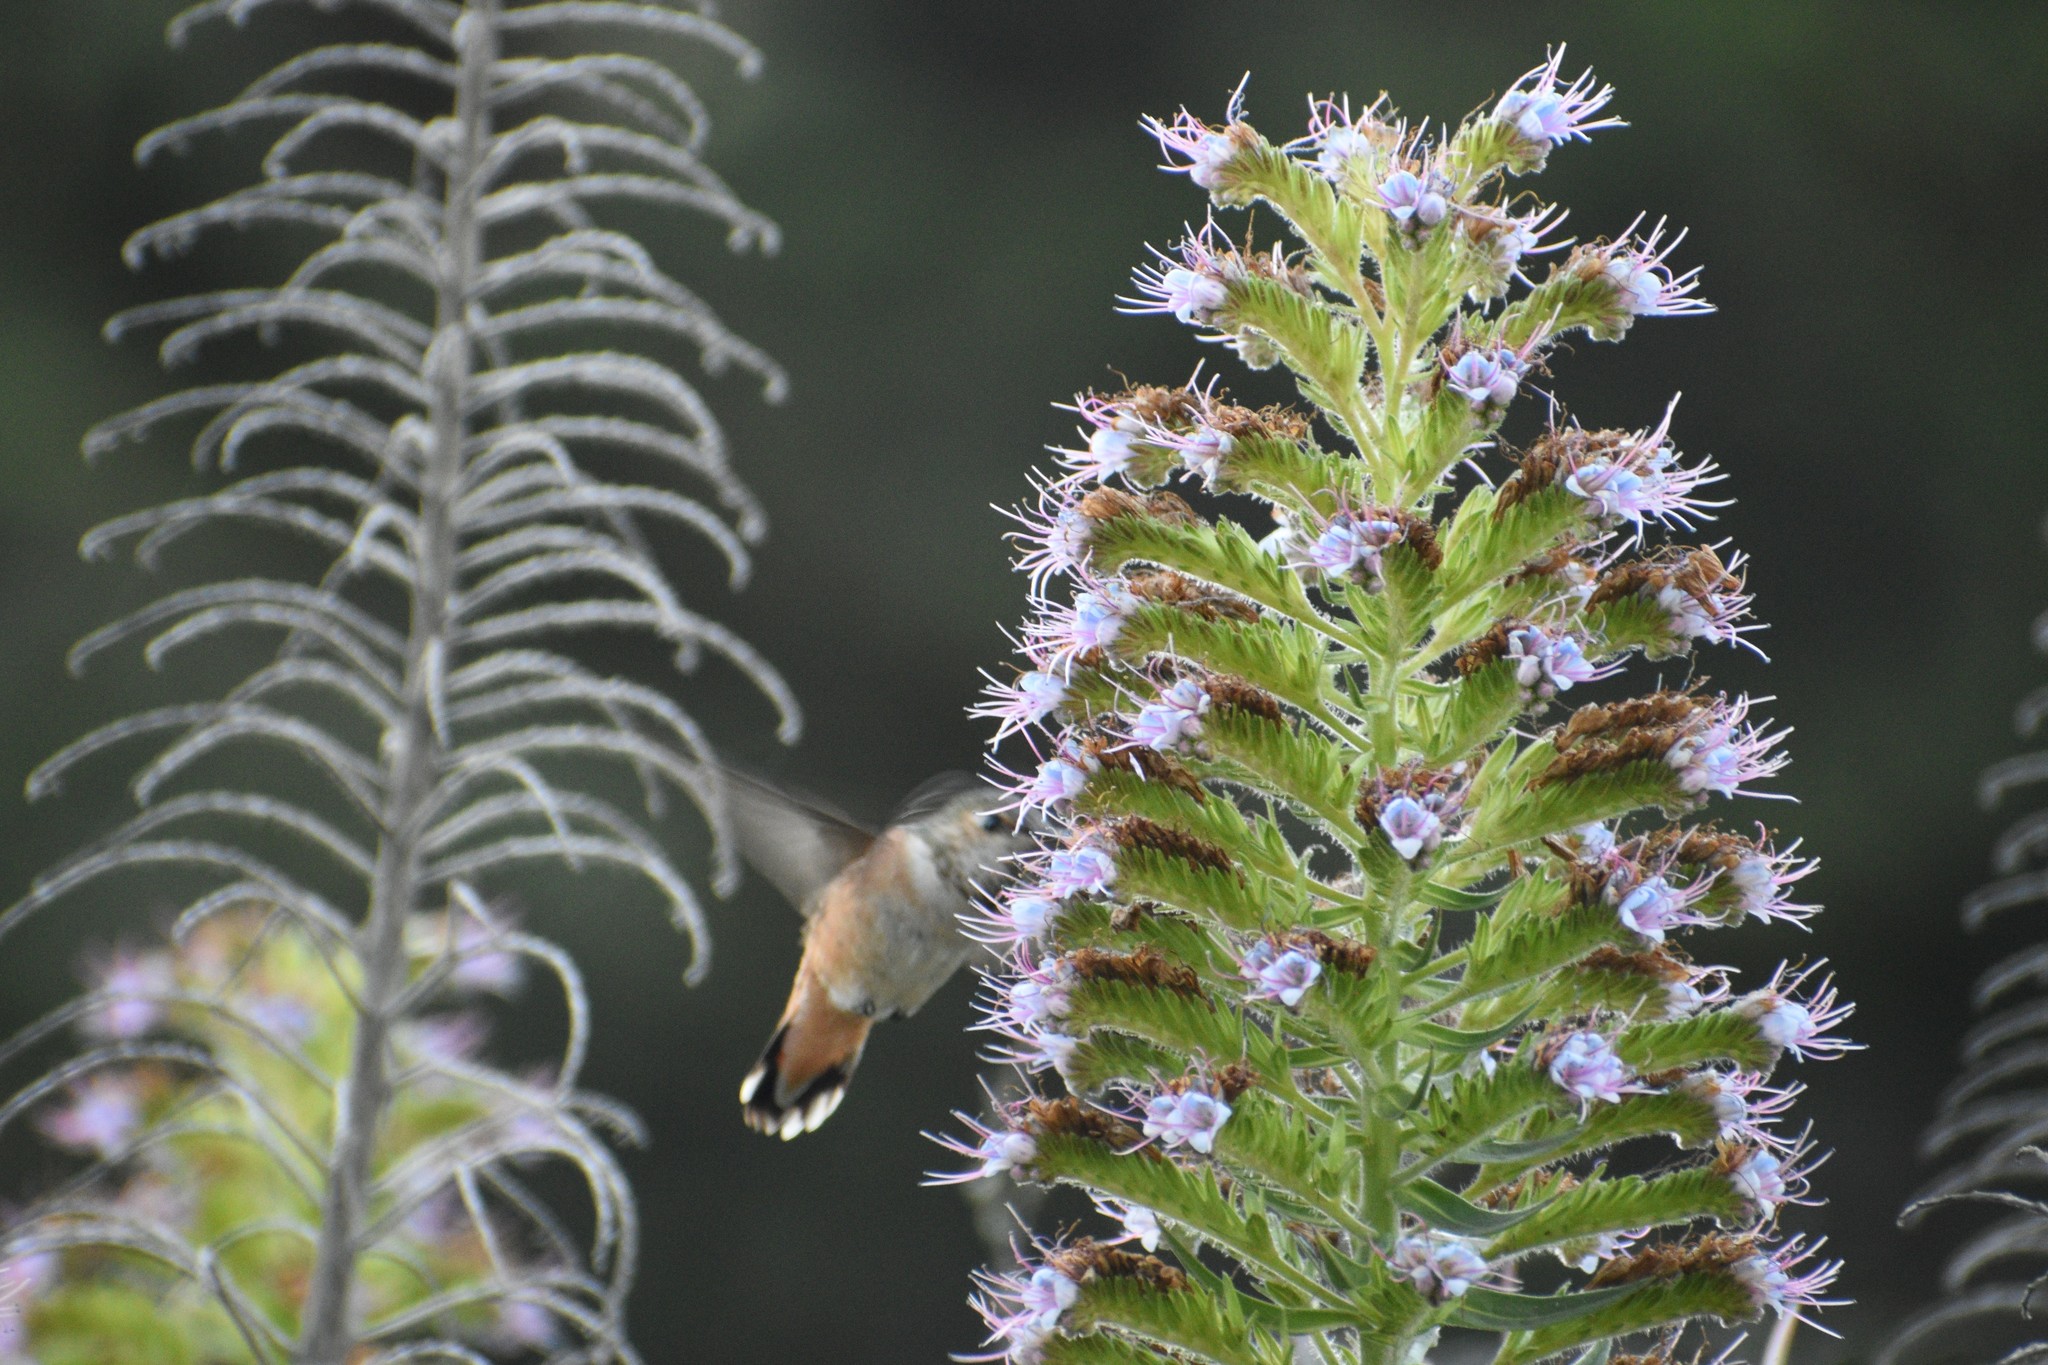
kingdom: Animalia
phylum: Chordata
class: Aves
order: Apodiformes
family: Trochilidae
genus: Selasphorus
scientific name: Selasphorus sasin
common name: Allen's hummingbird
